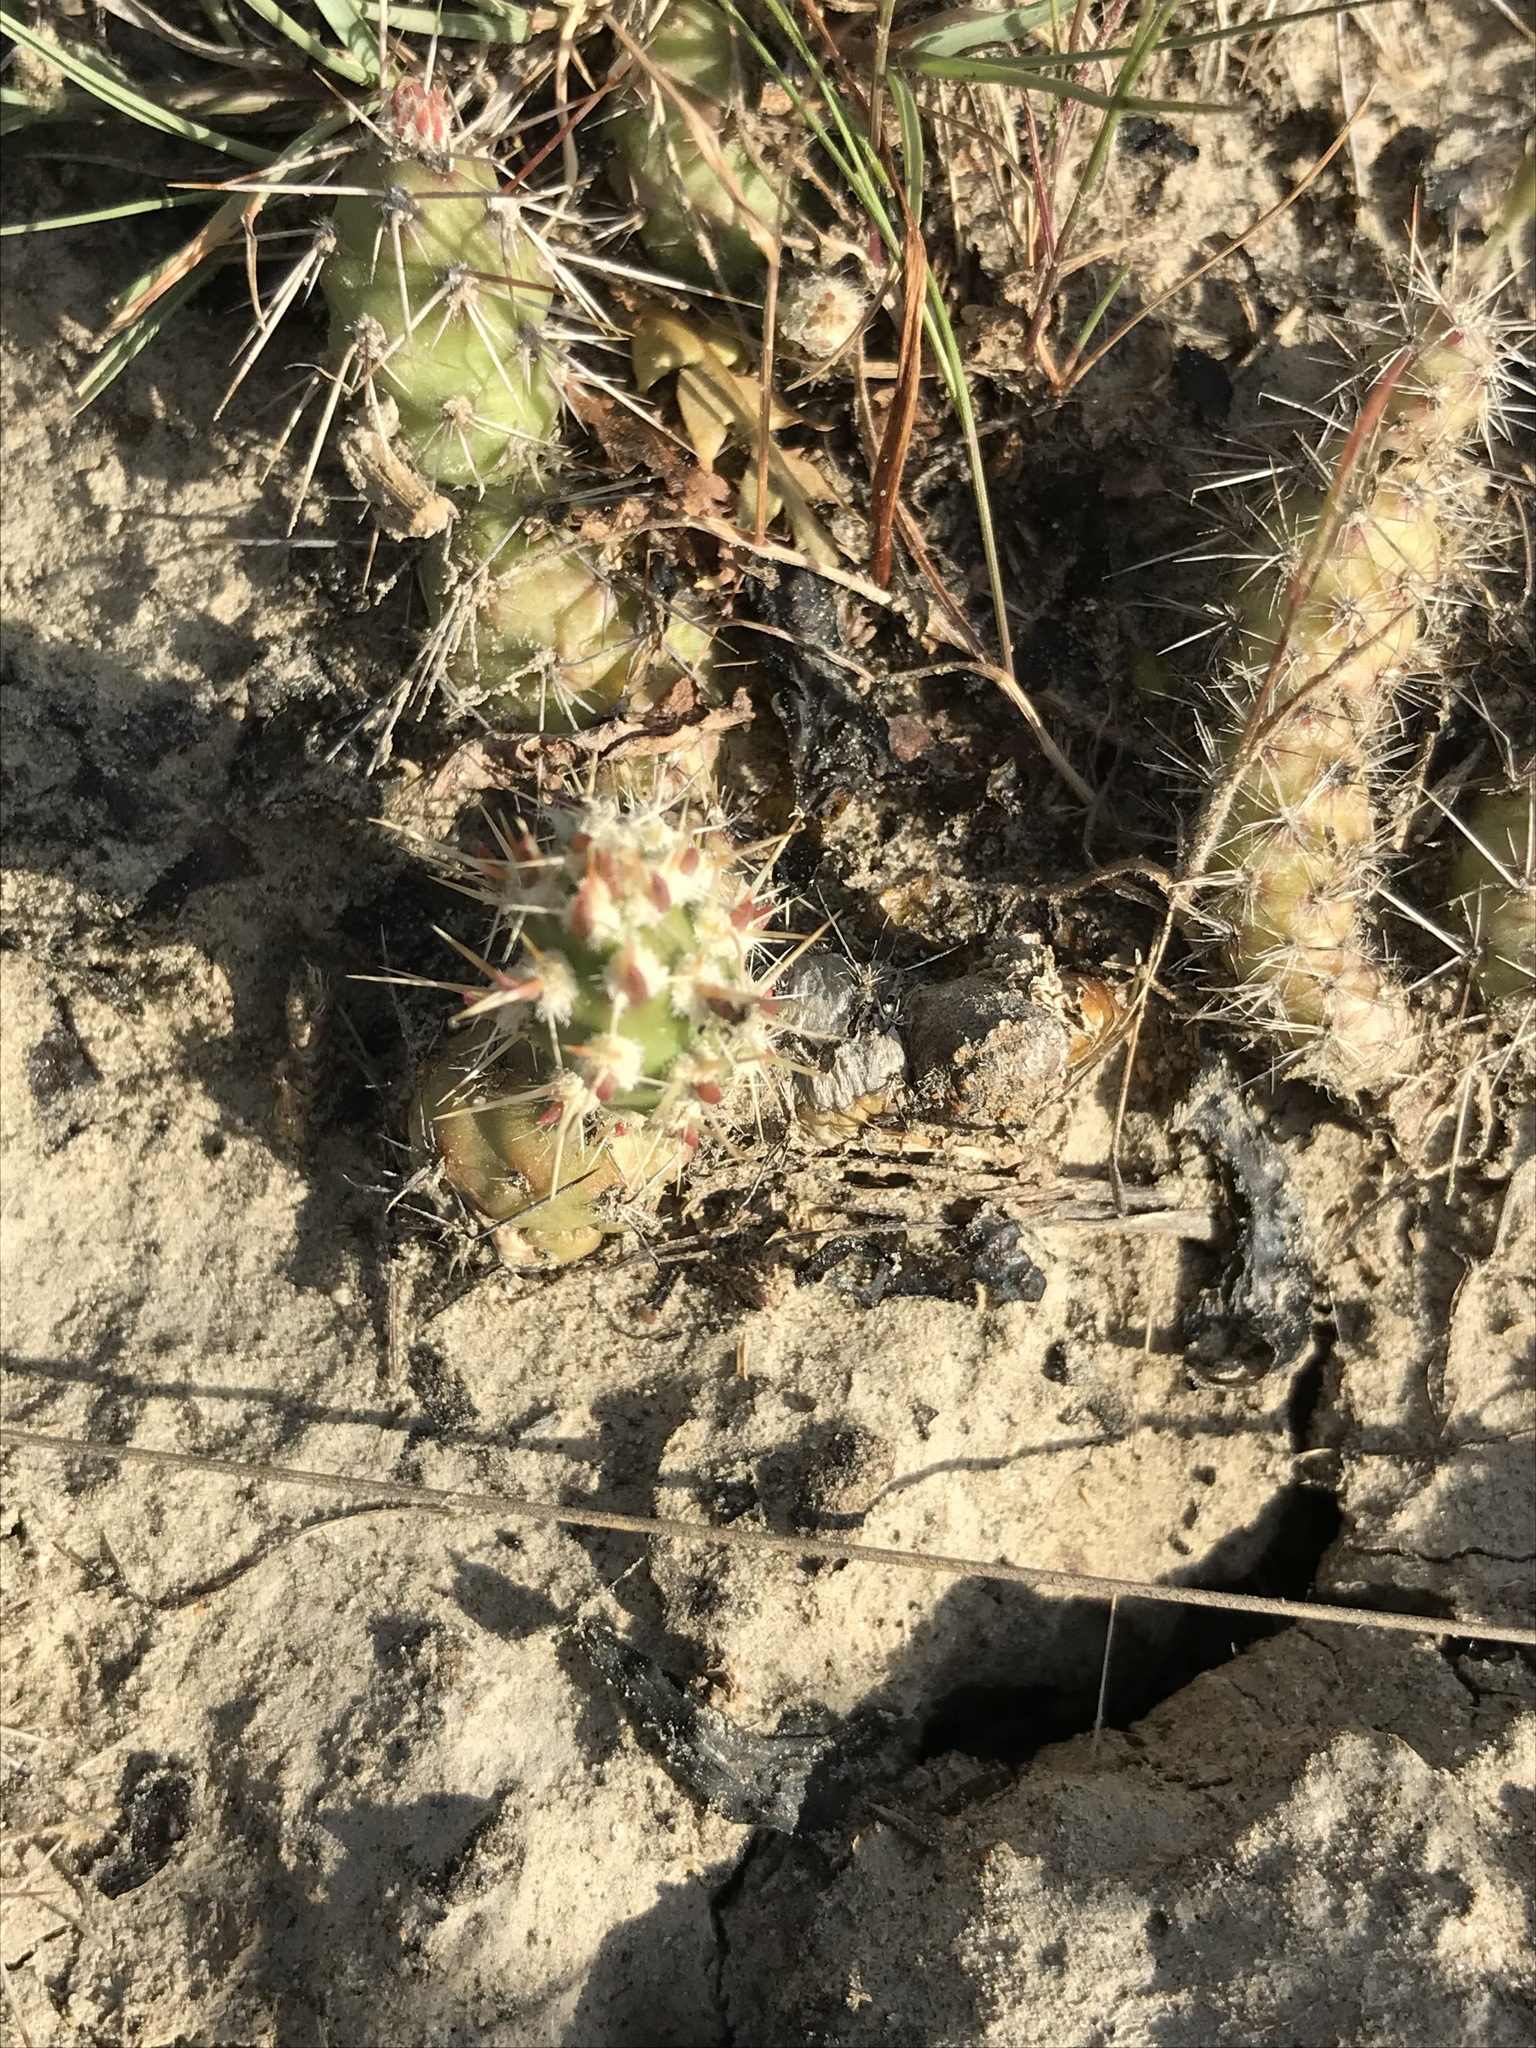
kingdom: Plantae
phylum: Tracheophyta
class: Magnoliopsida
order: Caryophyllales
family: Cactaceae
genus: Opuntia
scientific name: Opuntia fragilis
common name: Brittle cactus
